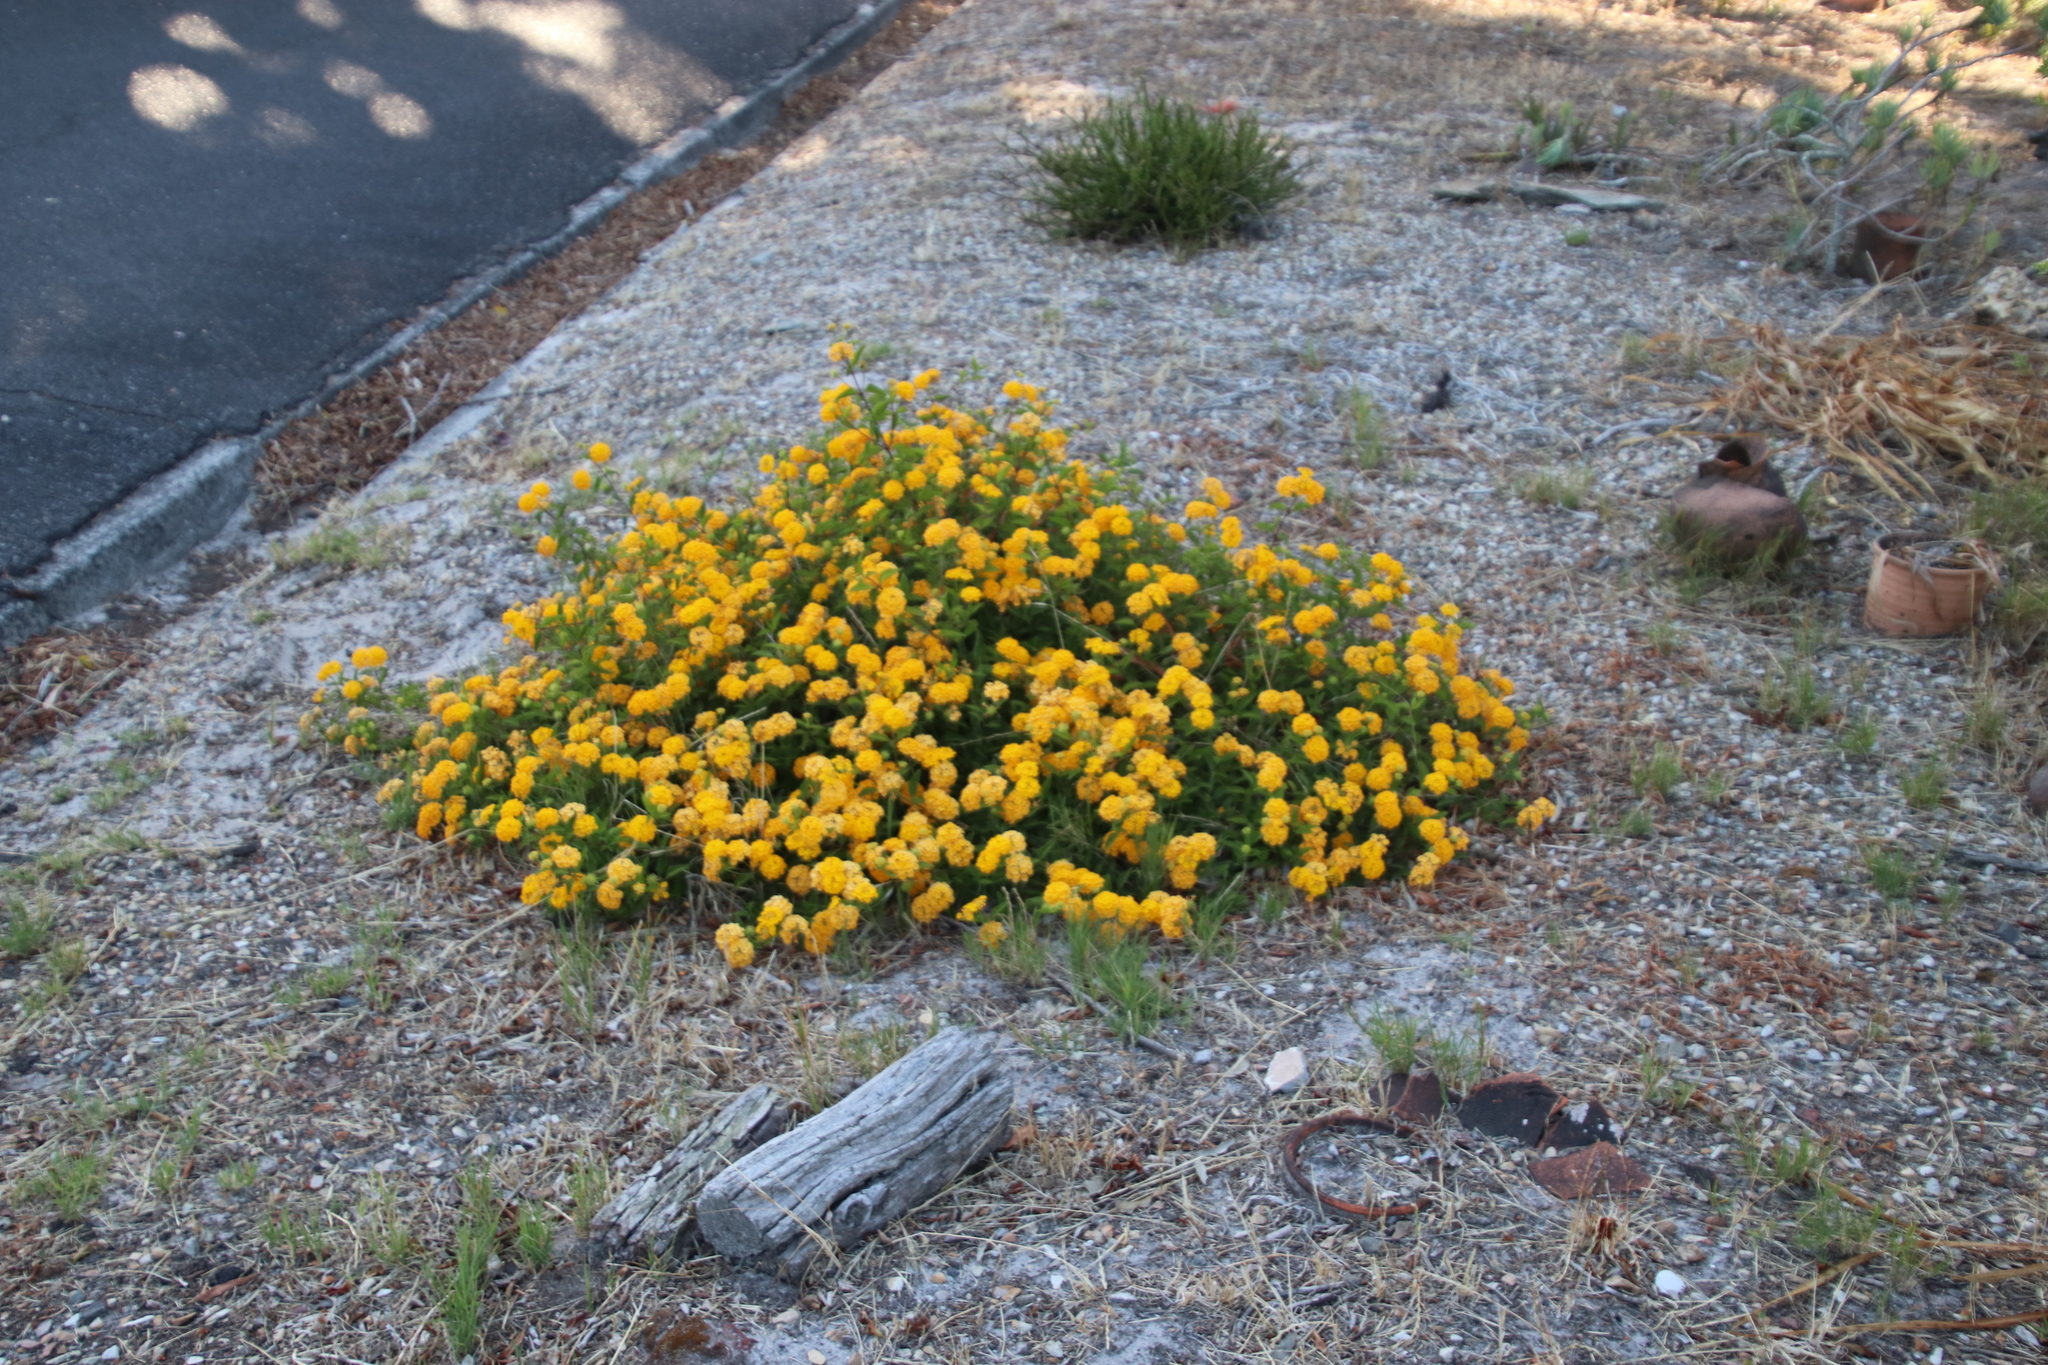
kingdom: Plantae
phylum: Tracheophyta
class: Magnoliopsida
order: Lamiales
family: Verbenaceae
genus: Lantana
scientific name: Lantana camara
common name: Lantana
